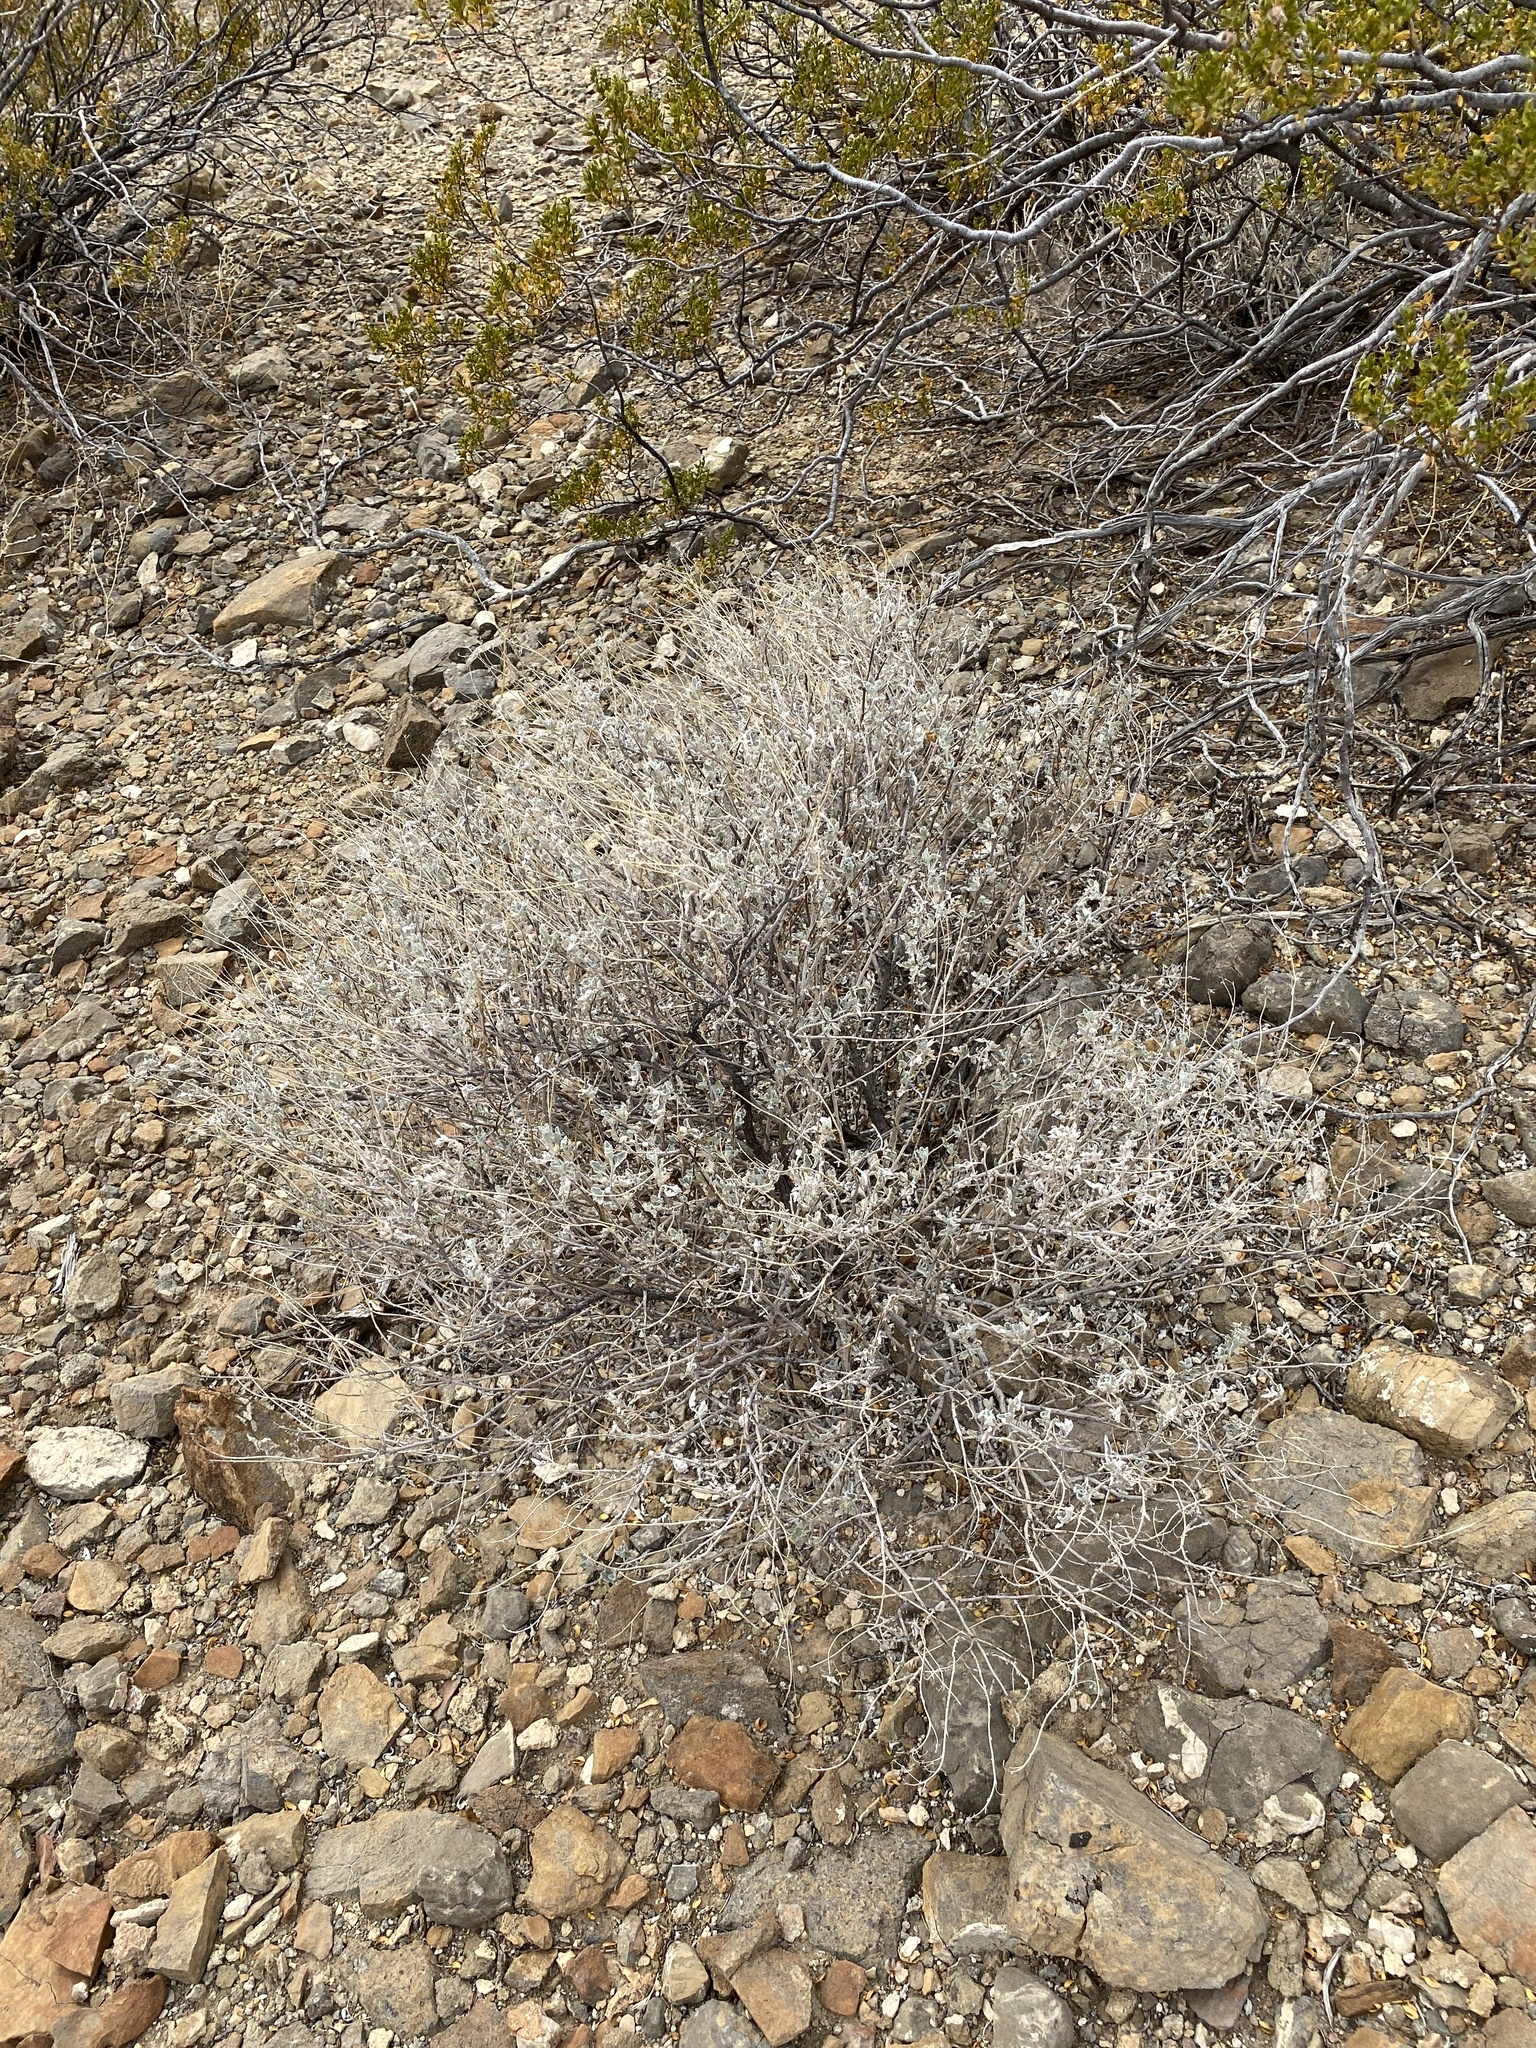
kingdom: Plantae
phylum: Tracheophyta
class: Magnoliopsida
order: Asterales
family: Asteraceae
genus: Parthenium
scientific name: Parthenium incanum
